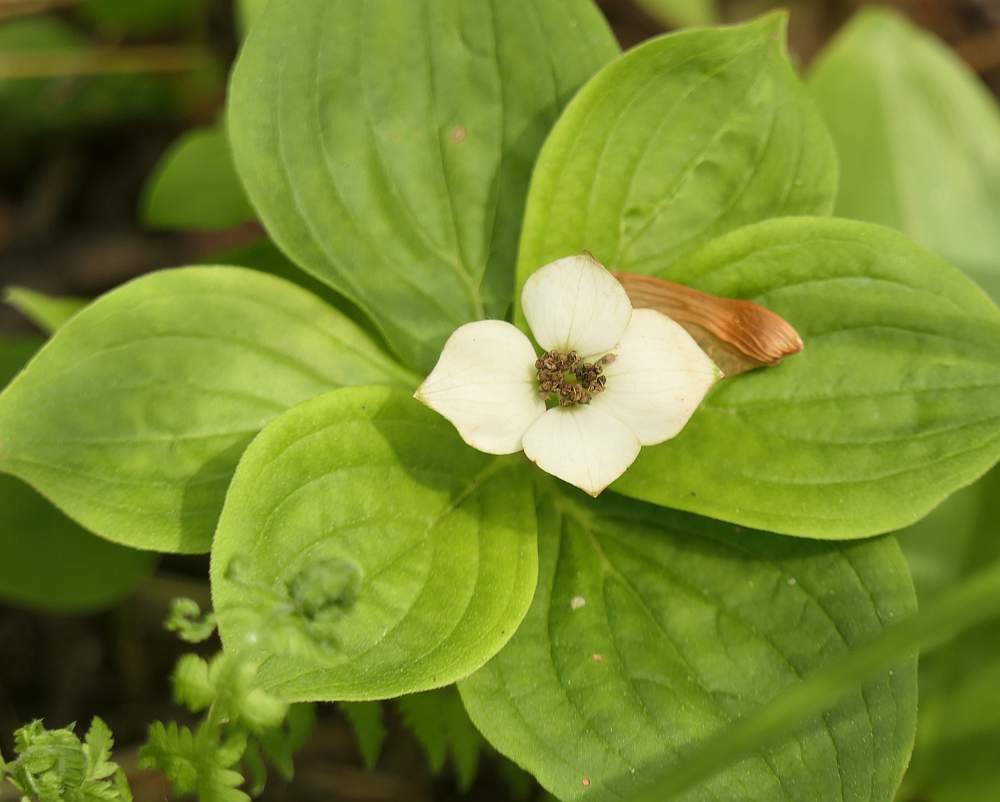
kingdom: Plantae
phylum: Tracheophyta
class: Magnoliopsida
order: Cornales
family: Cornaceae
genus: Cornus
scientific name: Cornus canadensis
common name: Creeping dogwood
